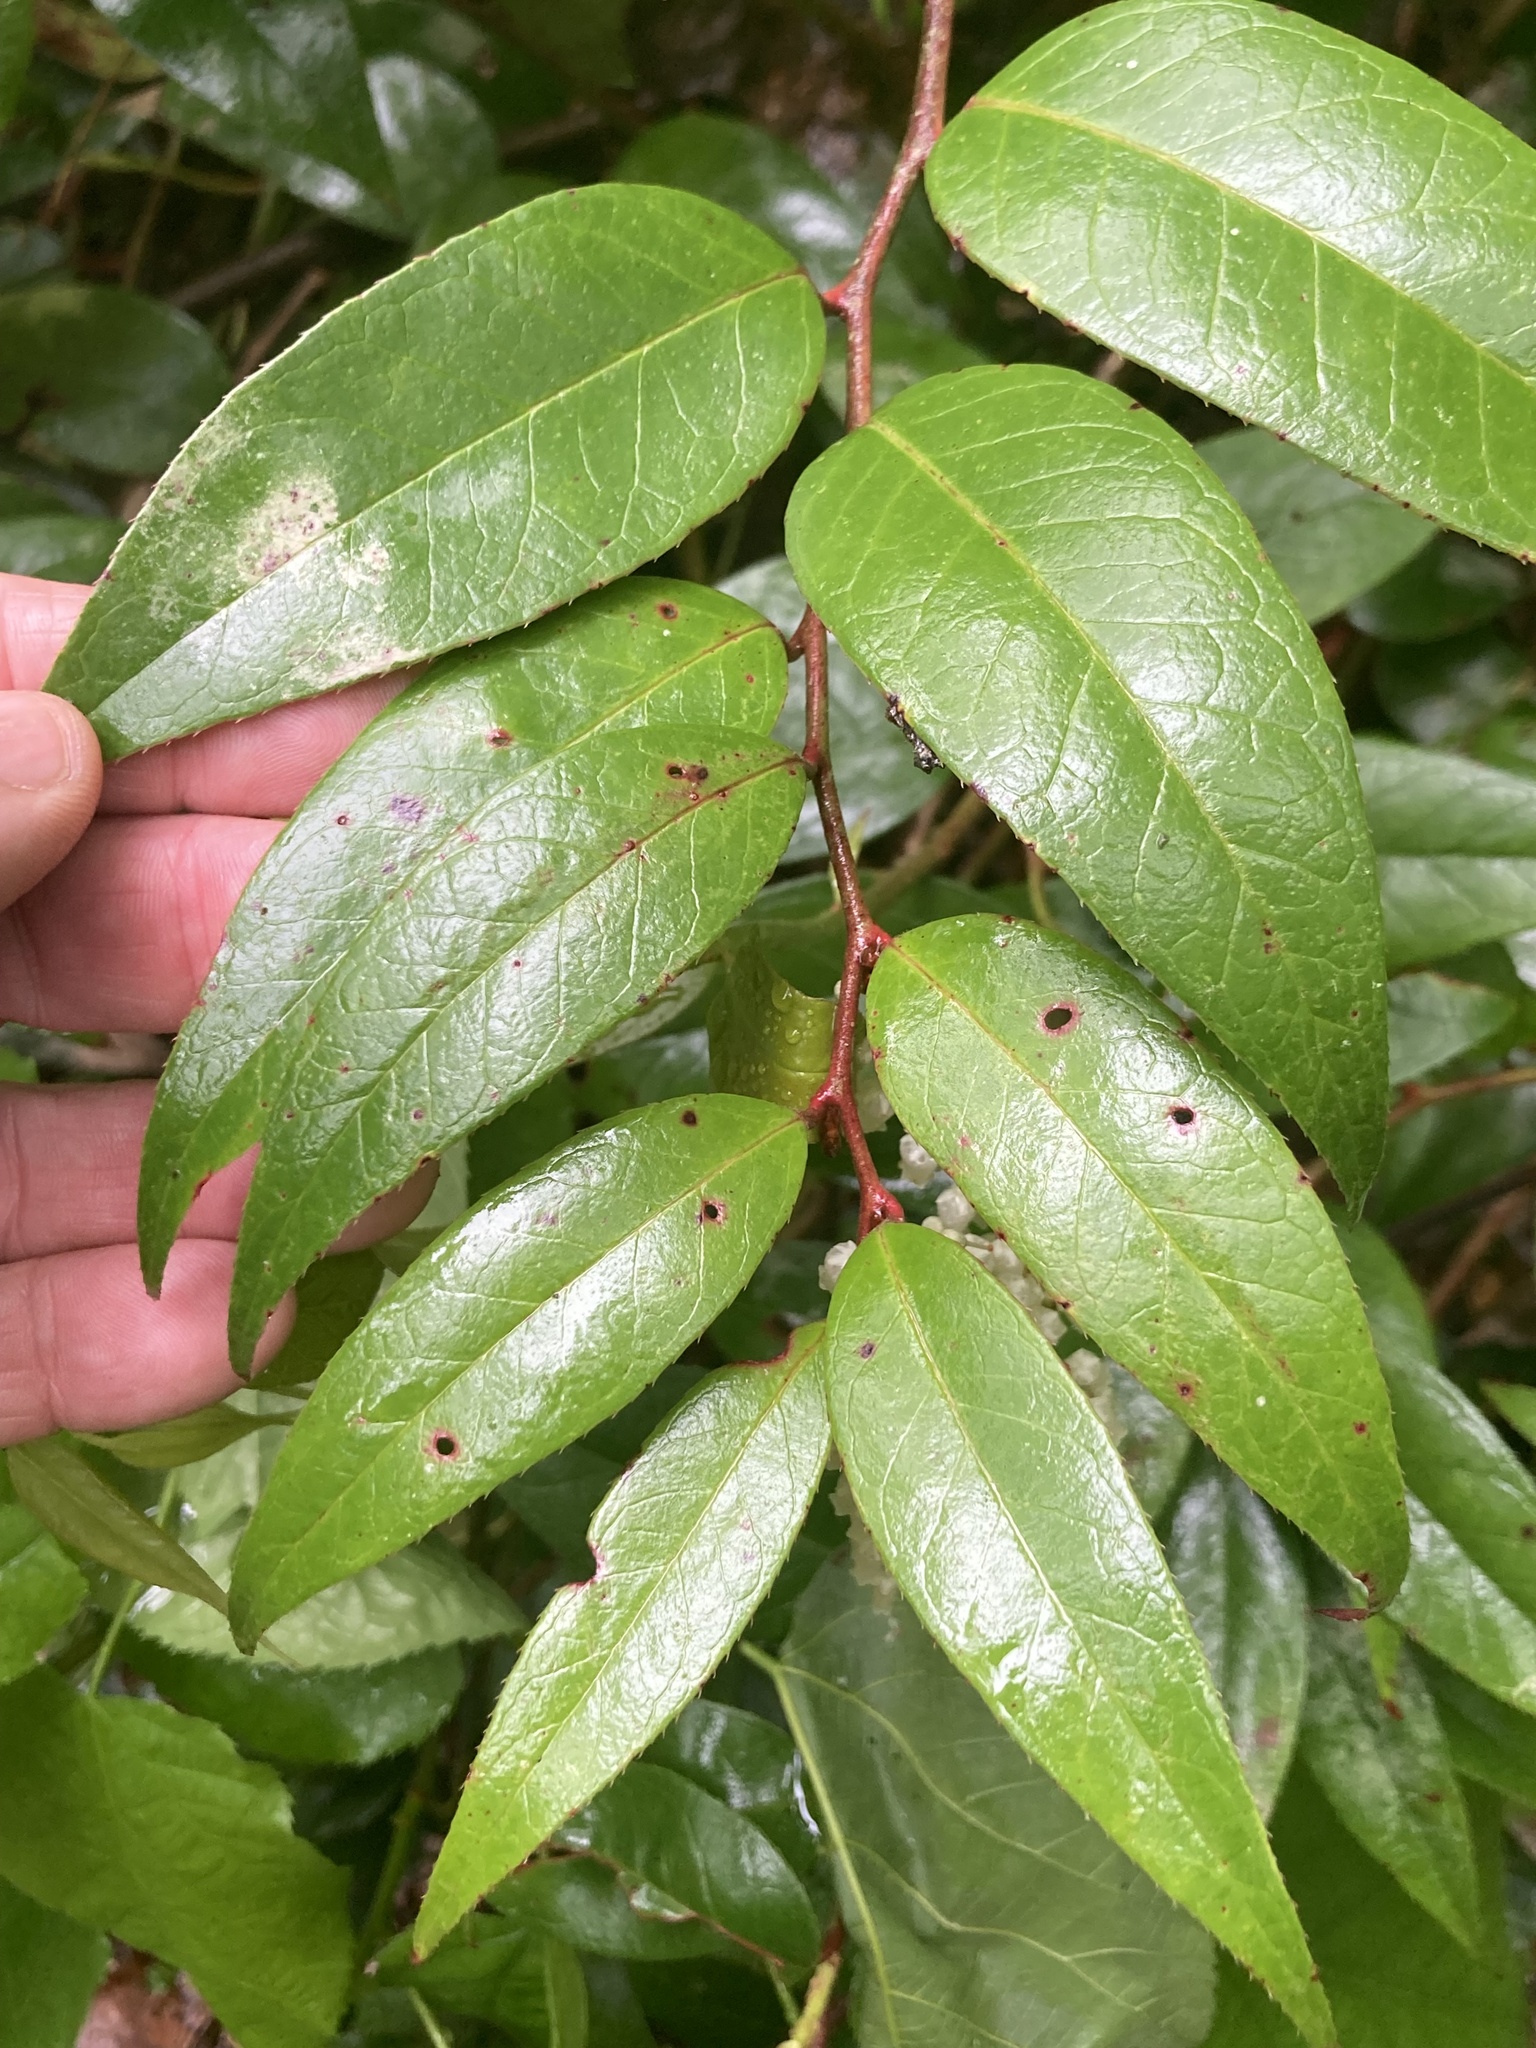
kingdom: Plantae
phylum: Tracheophyta
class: Magnoliopsida
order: Ericales
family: Ericaceae
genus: Leucothoe
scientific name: Leucothoe fontanesiana
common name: Fetterbush
